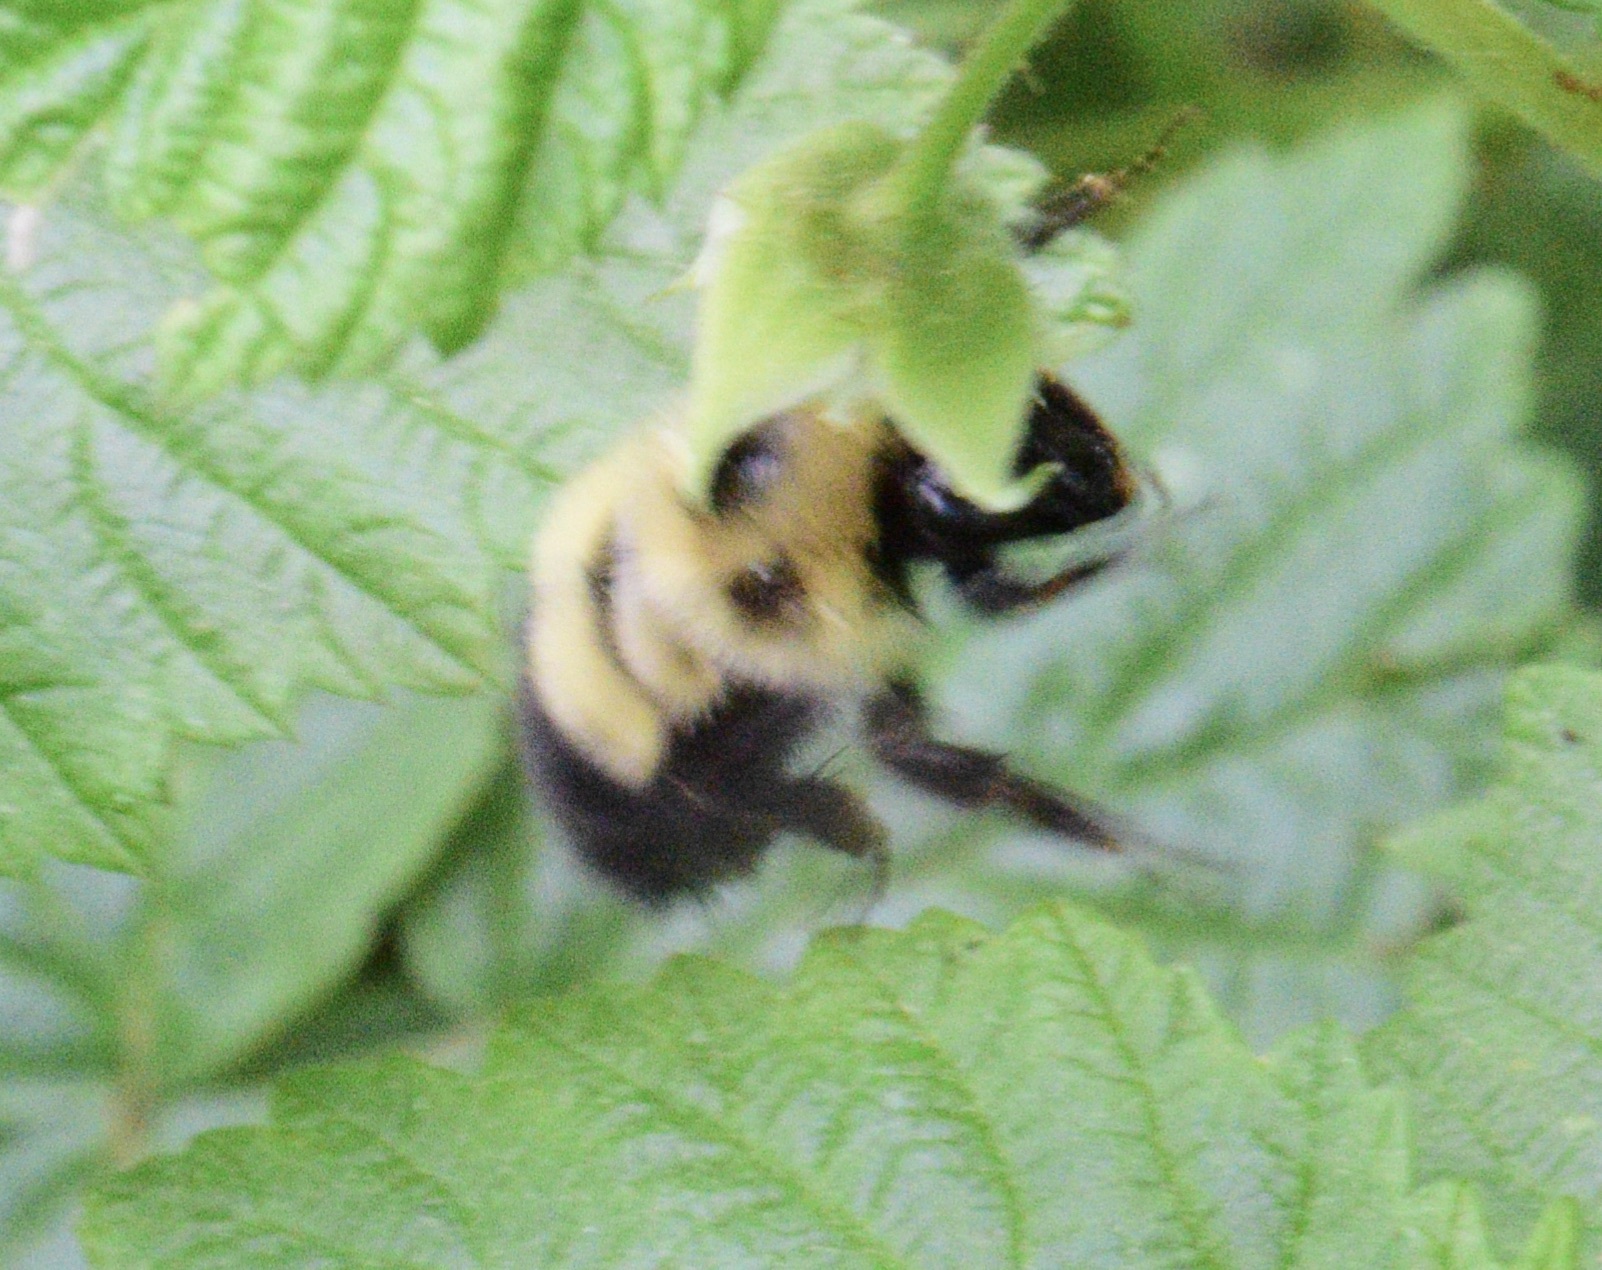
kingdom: Animalia
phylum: Arthropoda
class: Insecta
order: Hymenoptera
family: Apidae
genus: Pyrobombus
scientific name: Pyrobombus
